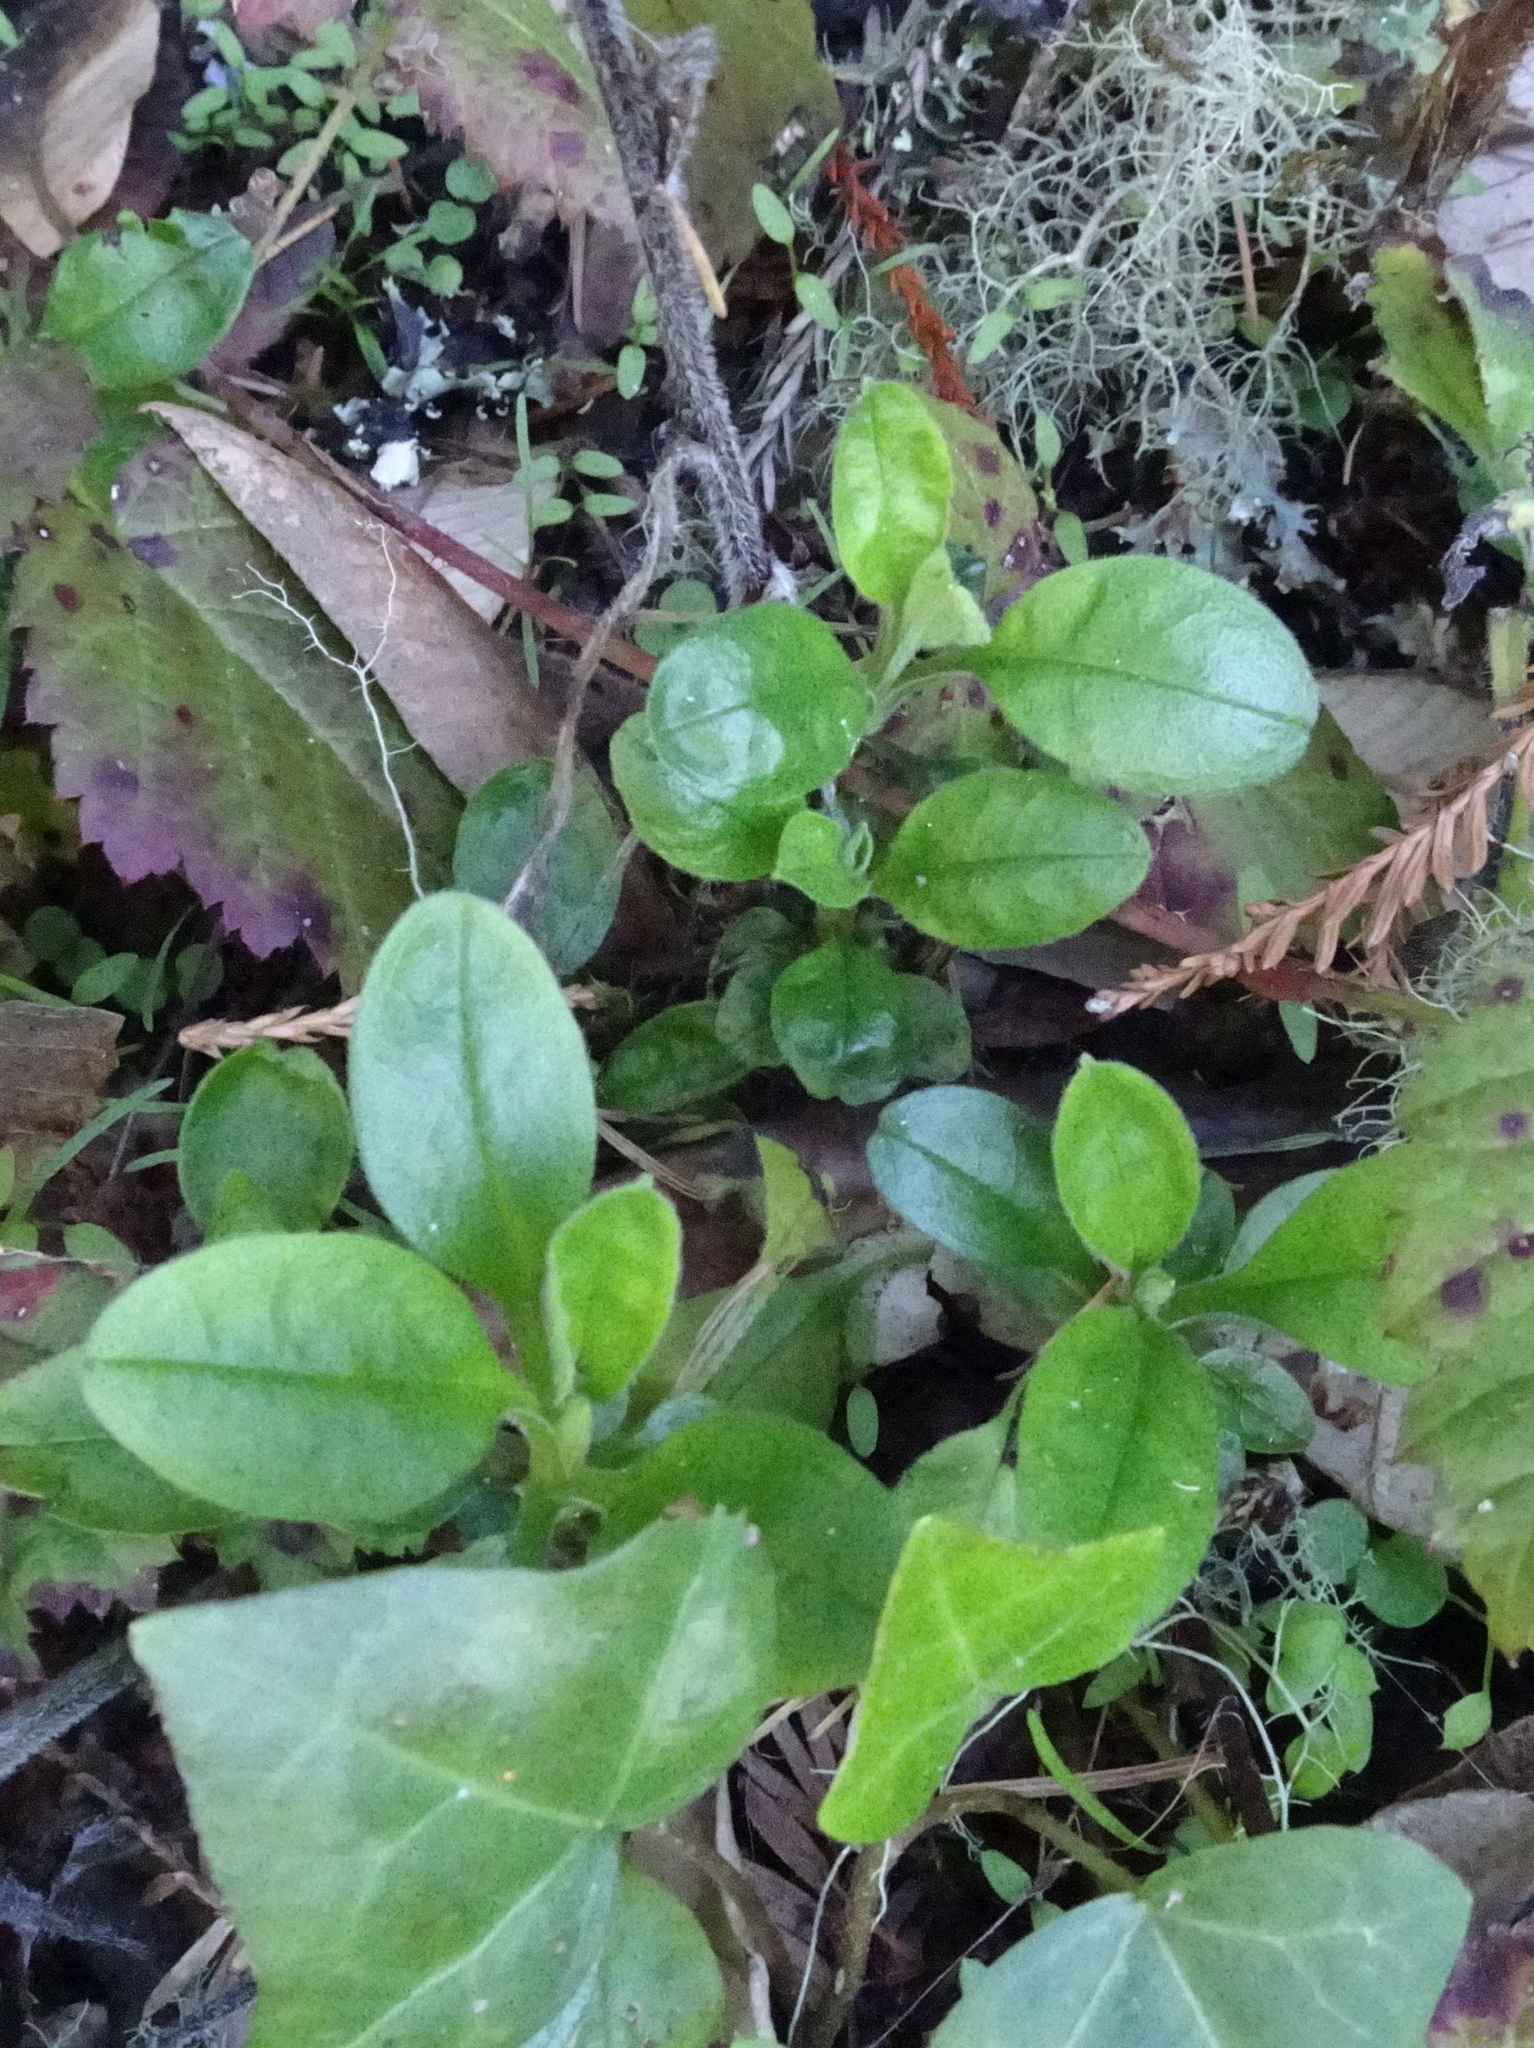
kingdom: Plantae
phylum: Tracheophyta
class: Magnoliopsida
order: Boraginales
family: Boraginaceae
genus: Myosotis
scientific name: Myosotis latifolia
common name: Broadleaf forget-me-not
